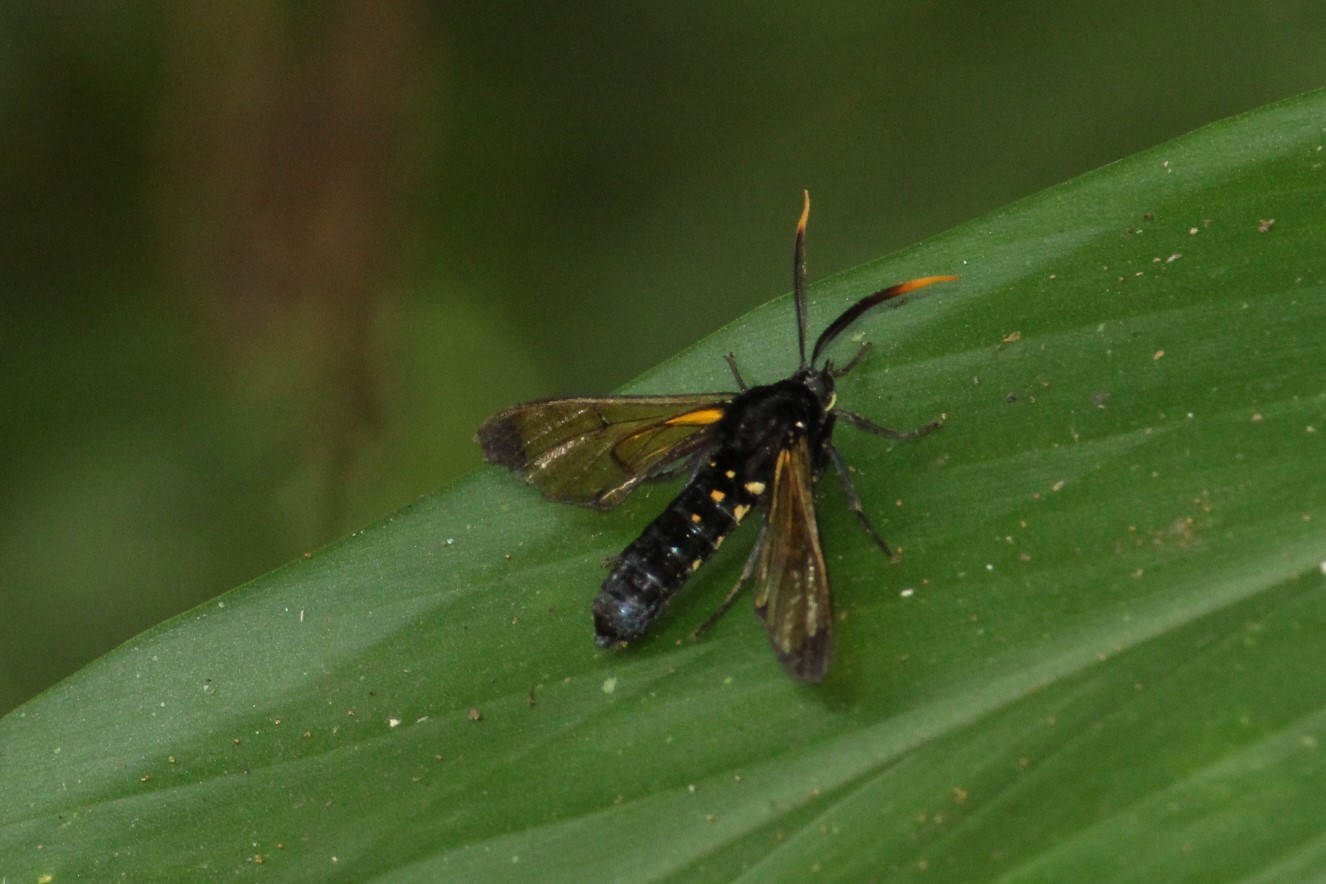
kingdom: Animalia
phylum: Arthropoda
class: Insecta
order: Lepidoptera
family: Erebidae
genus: Isanthrene
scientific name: Isanthrene incendiaria
